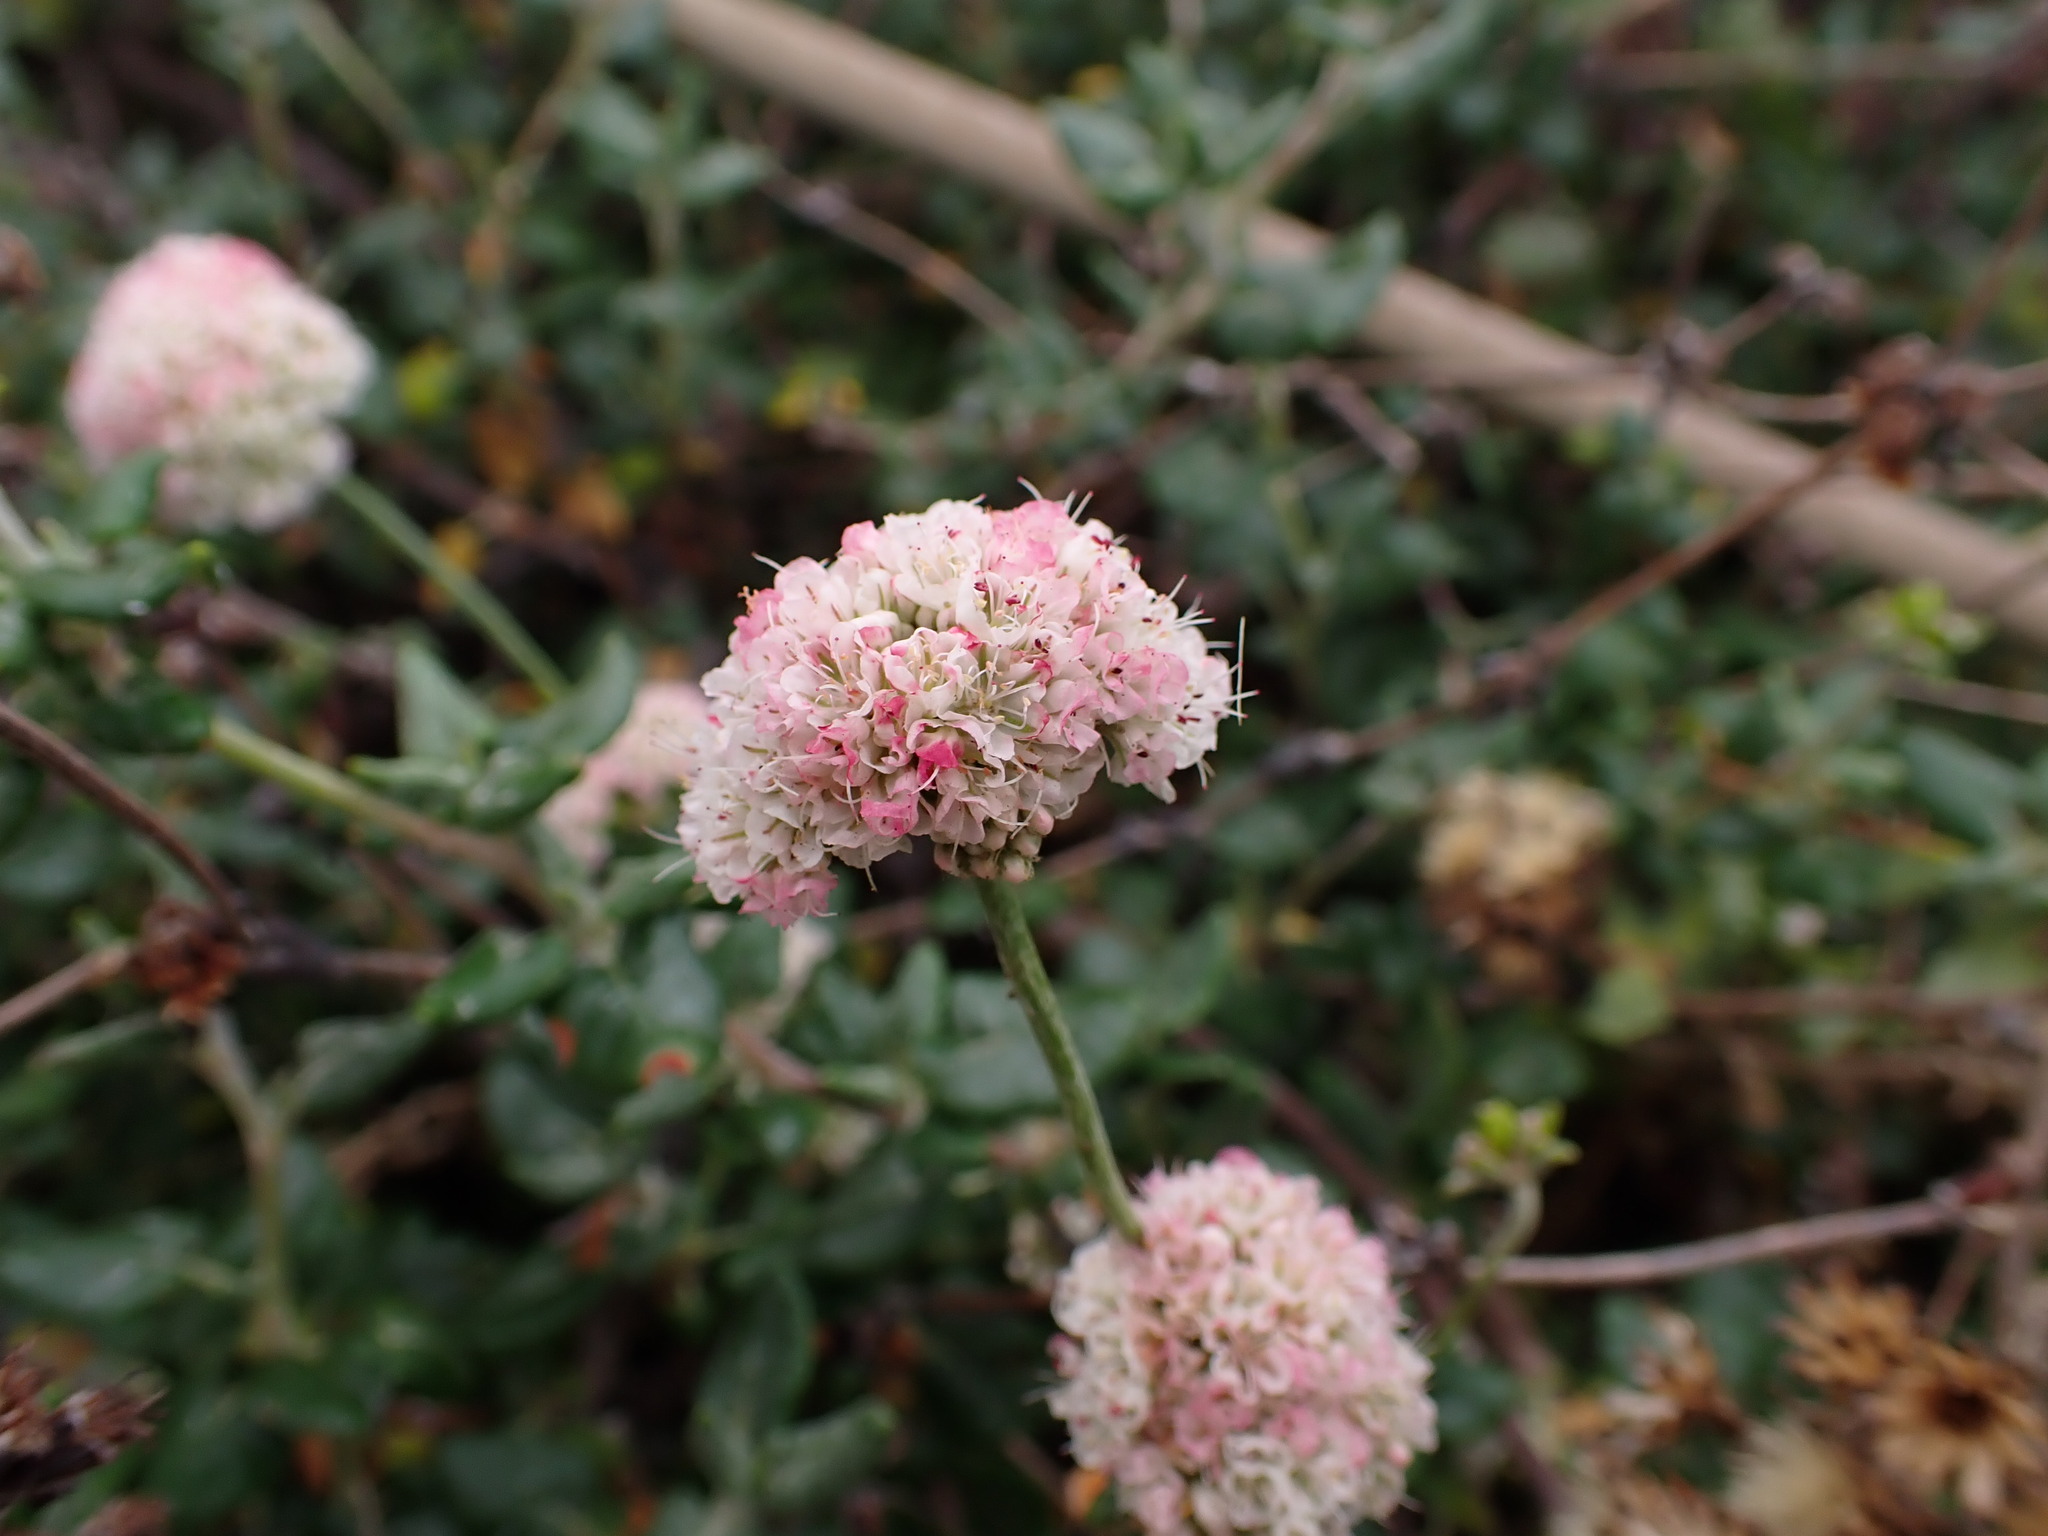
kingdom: Plantae
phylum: Tracheophyta
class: Magnoliopsida
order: Caryophyllales
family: Polygonaceae
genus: Eriogonum
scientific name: Eriogonum parvifolium
